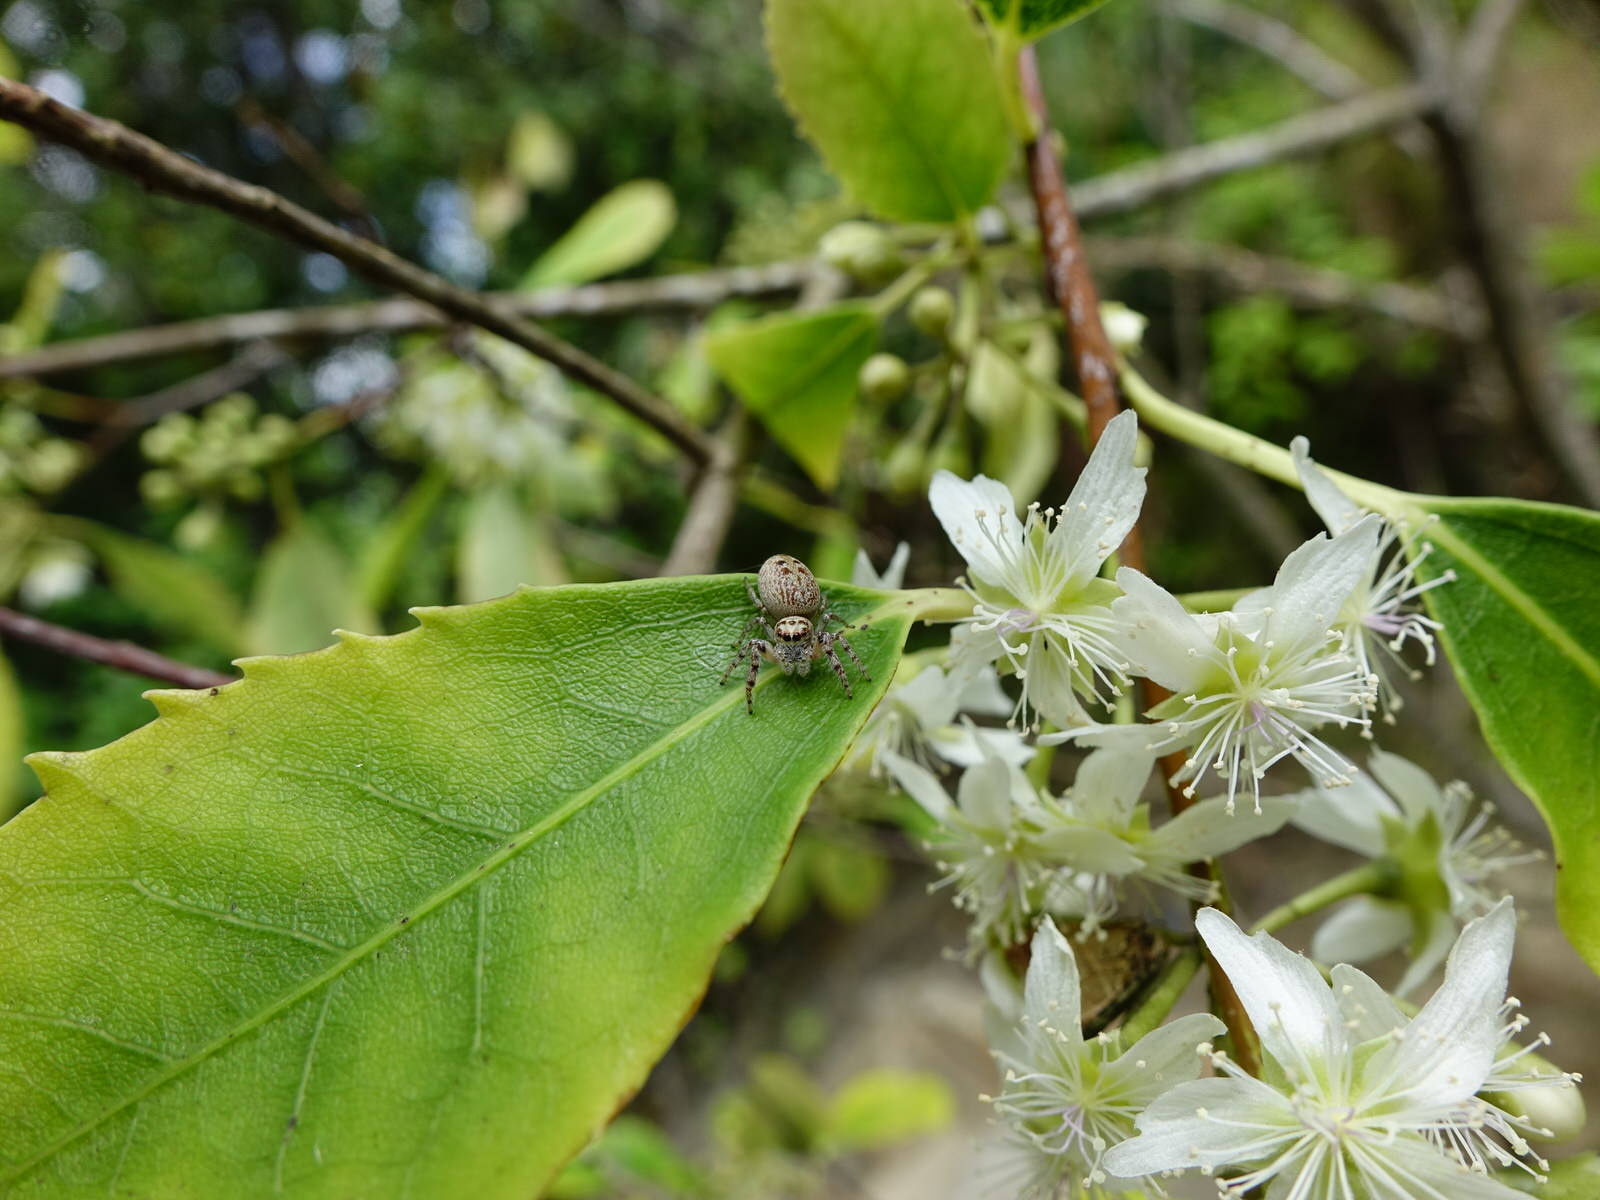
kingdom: Animalia
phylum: Arthropoda
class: Arachnida
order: Araneae
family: Salticidae
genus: Opisthoncus
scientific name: Opisthoncus polyphemus
